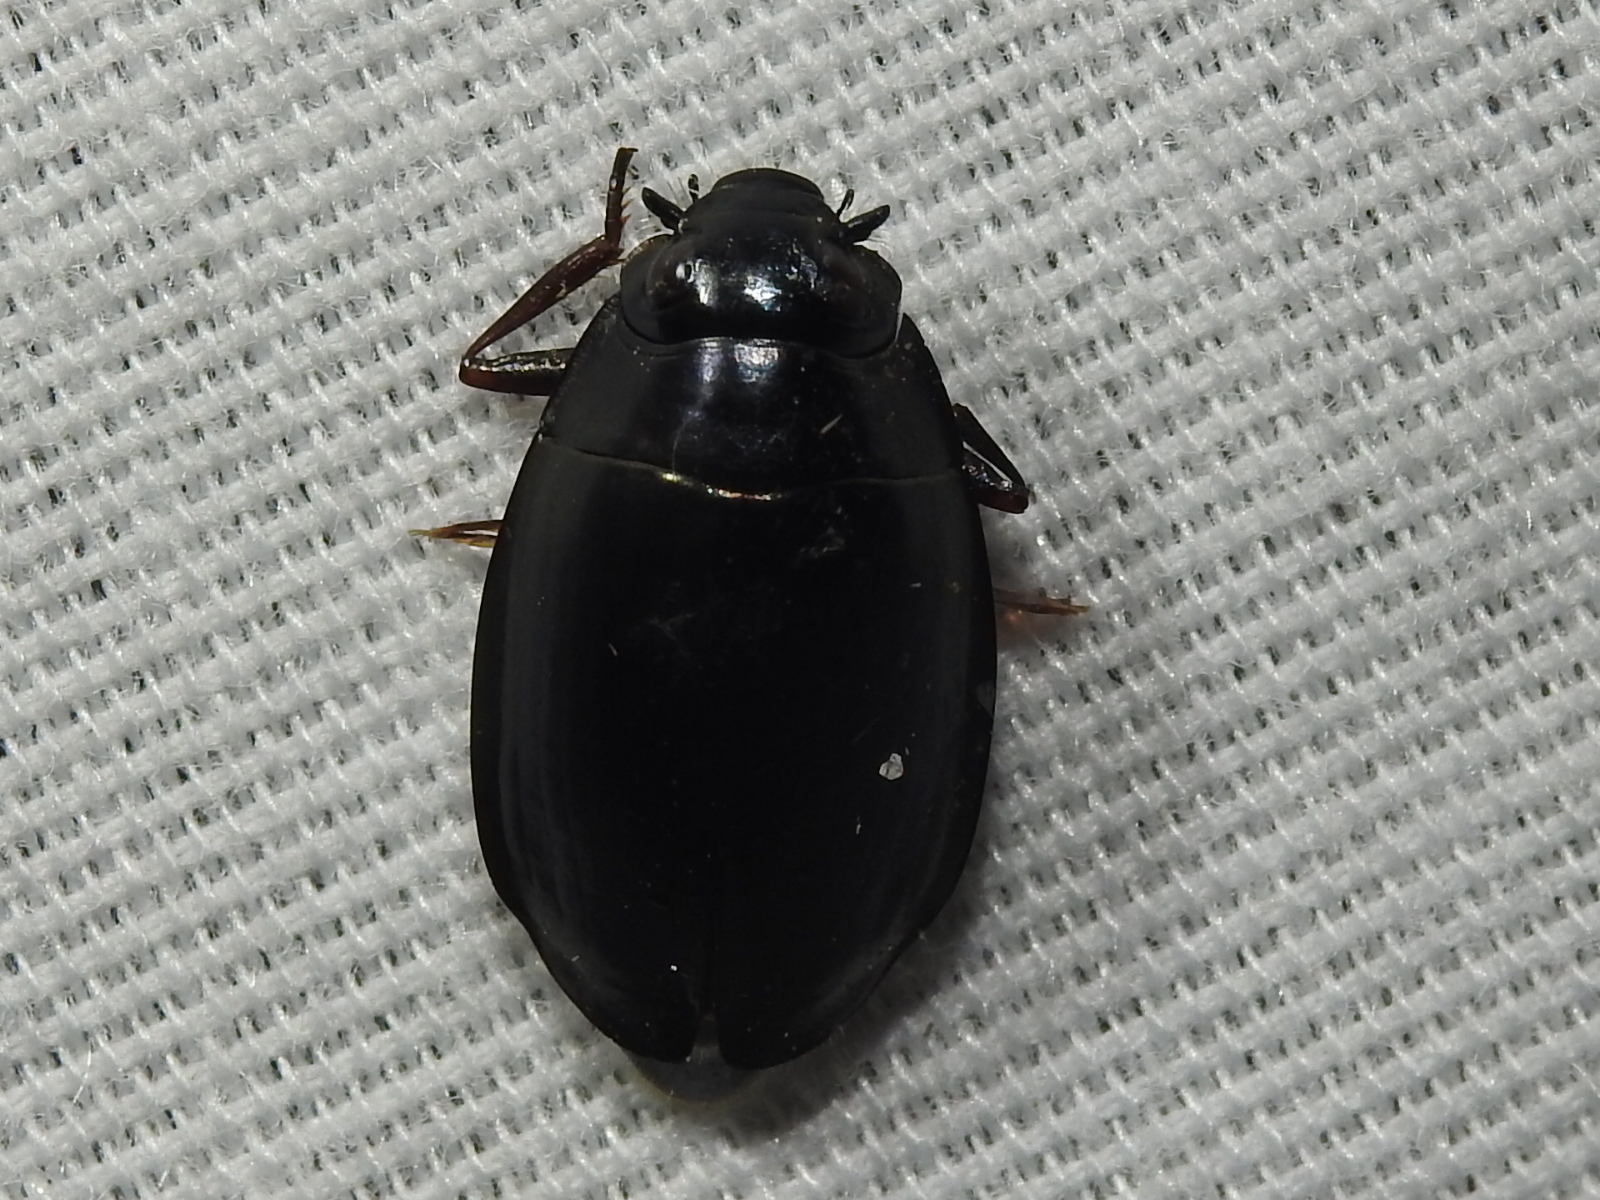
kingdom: Animalia
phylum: Arthropoda
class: Insecta
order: Coleoptera
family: Gyrinidae
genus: Dineutus
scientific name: Dineutus
